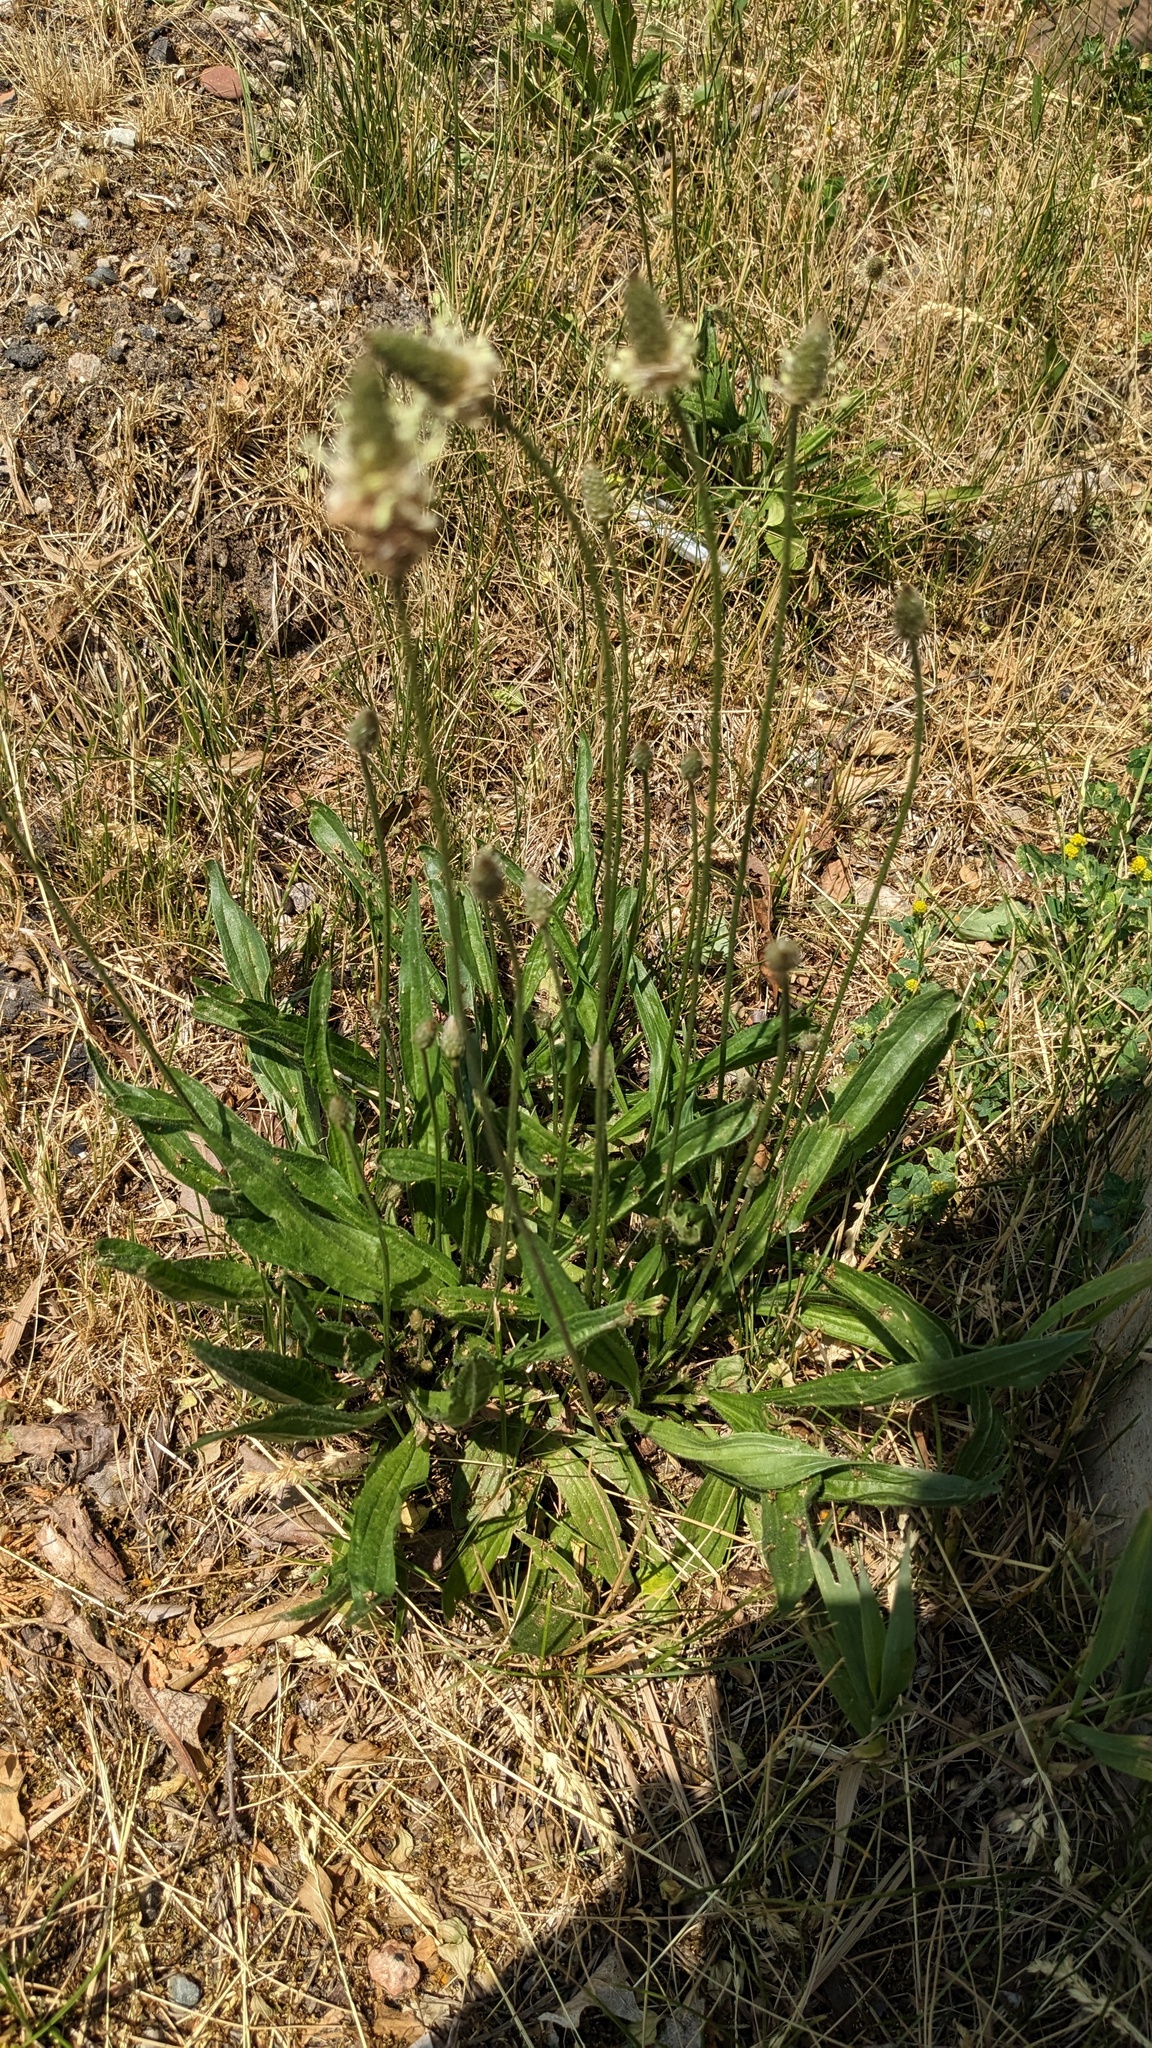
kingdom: Plantae
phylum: Tracheophyta
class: Magnoliopsida
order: Lamiales
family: Plantaginaceae
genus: Plantago
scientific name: Plantago lanceolata
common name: Ribwort plantain
